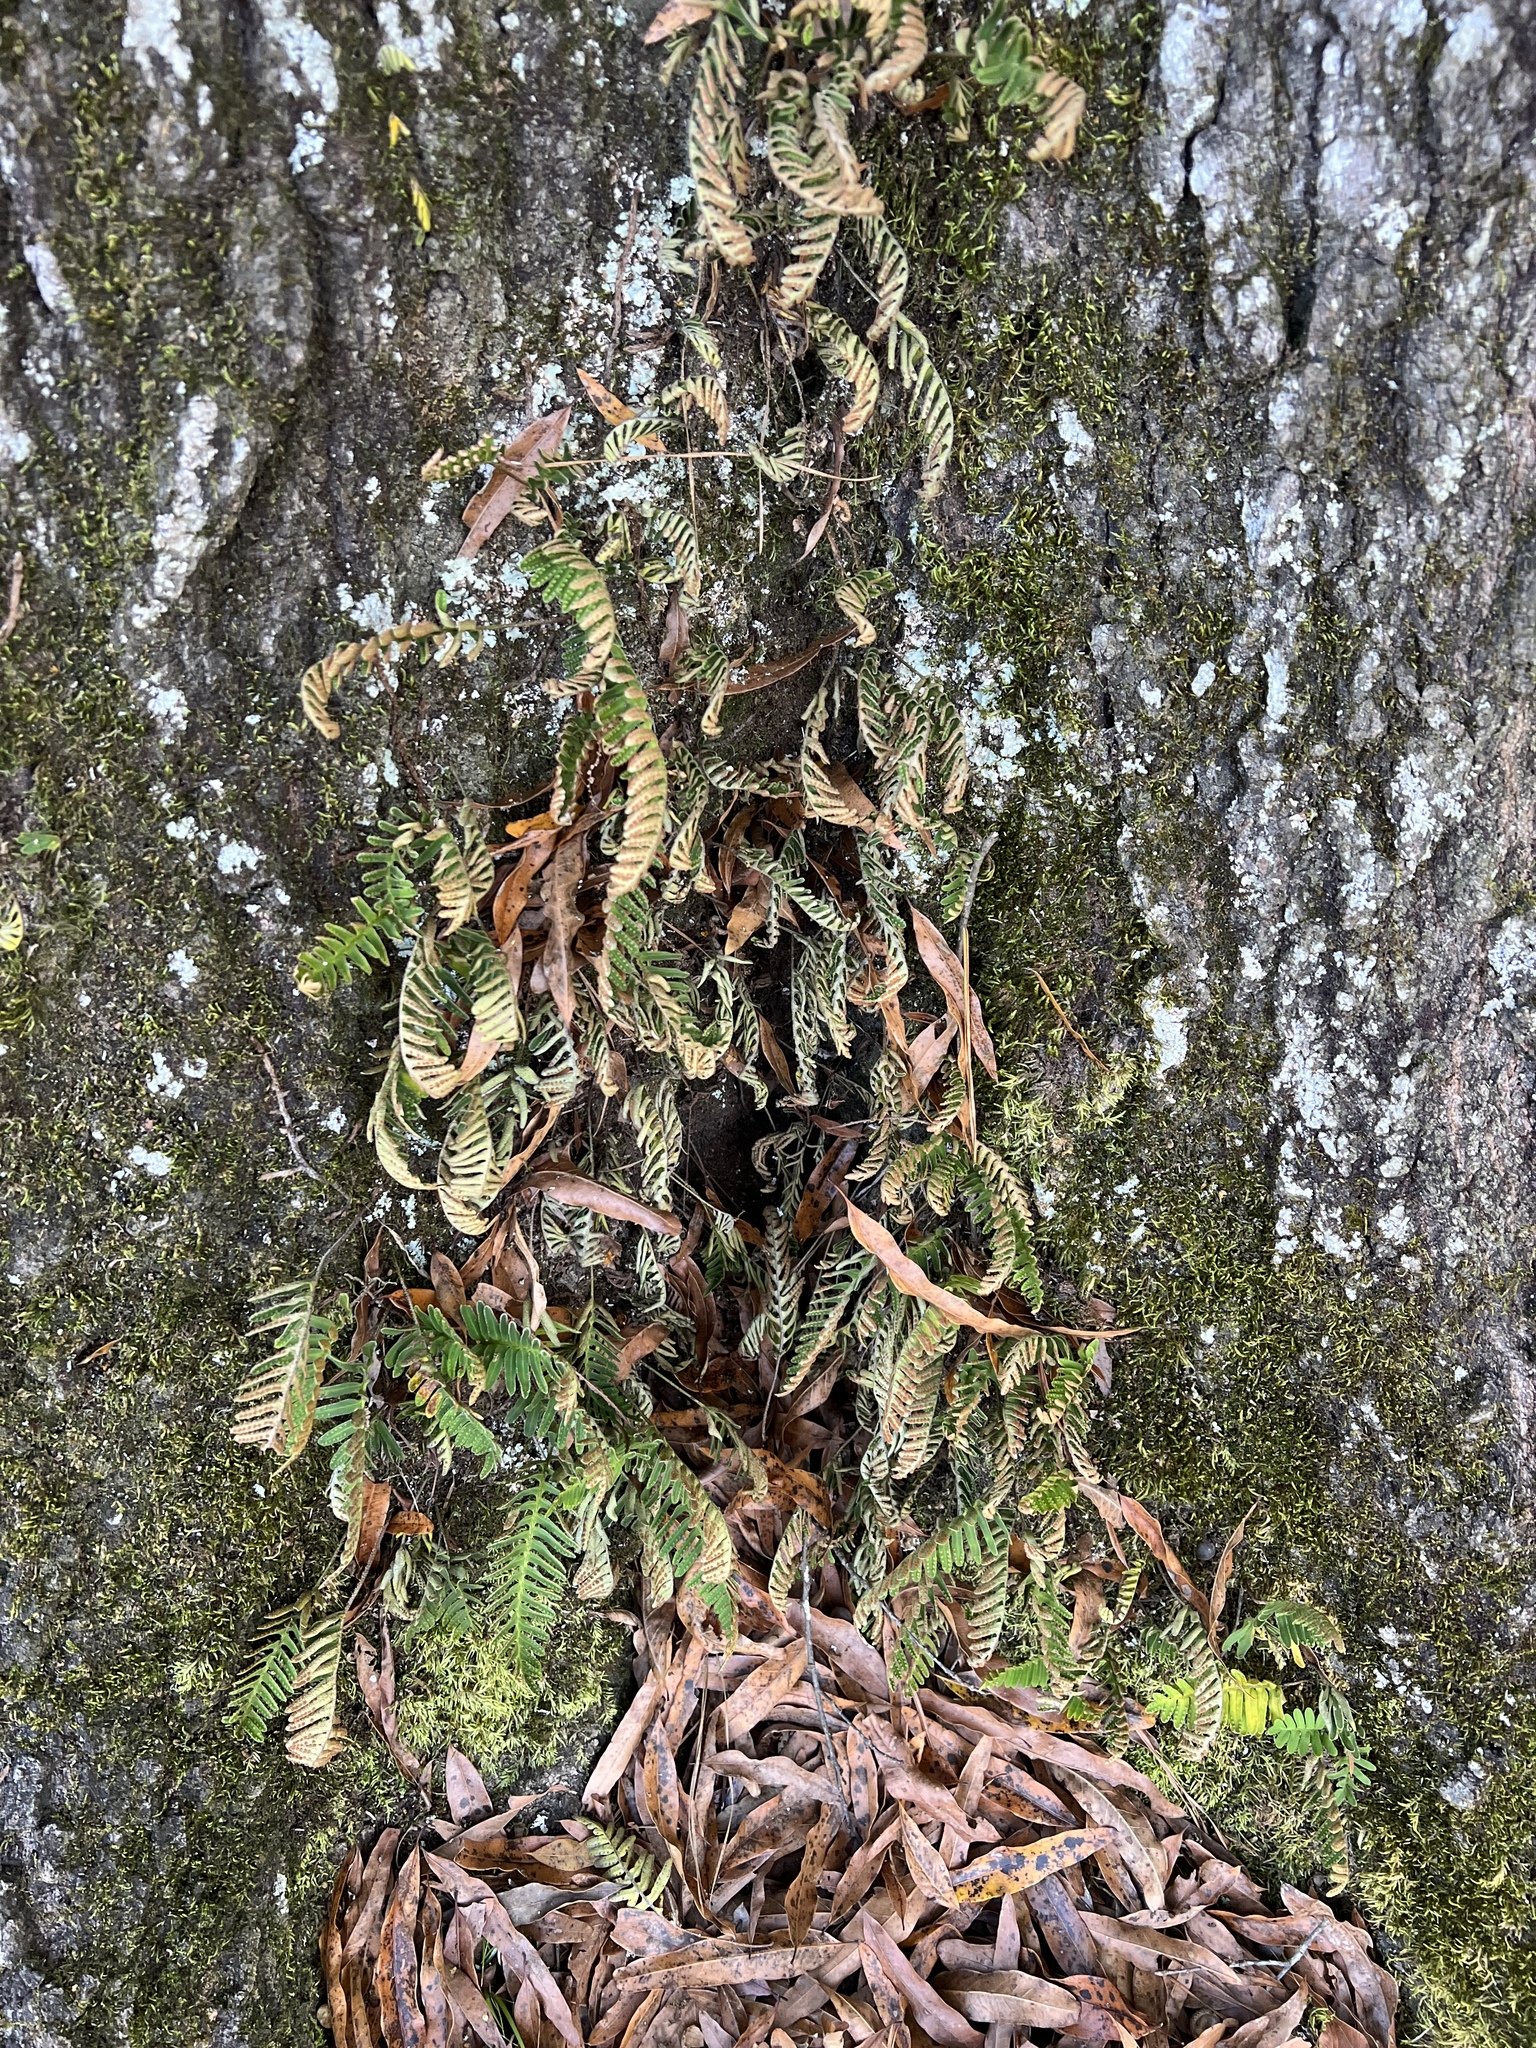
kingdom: Plantae
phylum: Tracheophyta
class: Polypodiopsida
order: Polypodiales
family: Polypodiaceae
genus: Pleopeltis
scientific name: Pleopeltis michauxiana
